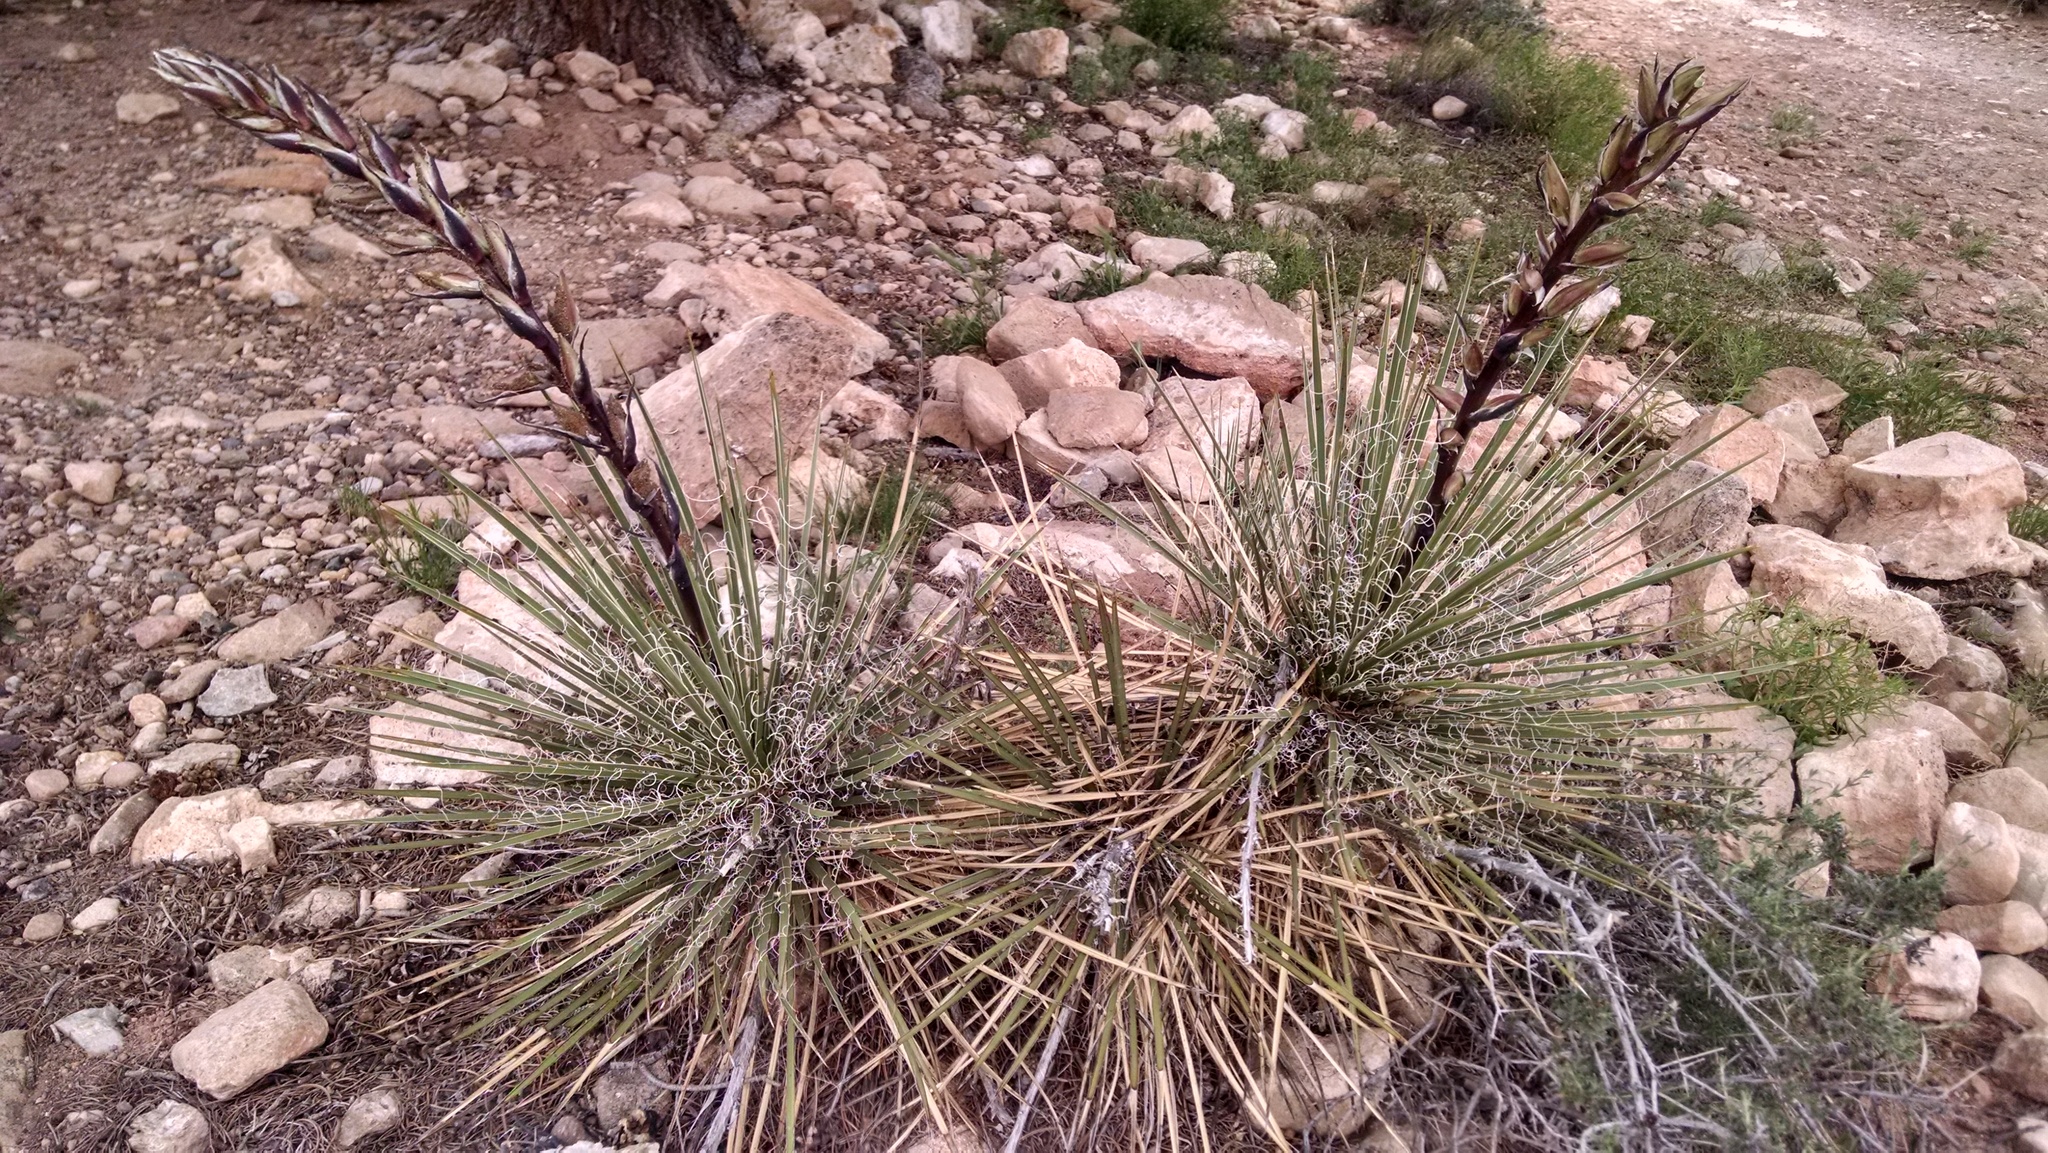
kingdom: Plantae
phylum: Tracheophyta
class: Liliopsida
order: Asparagales
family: Asparagaceae
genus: Yucca
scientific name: Yucca baileyi
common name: Alpine yucca
